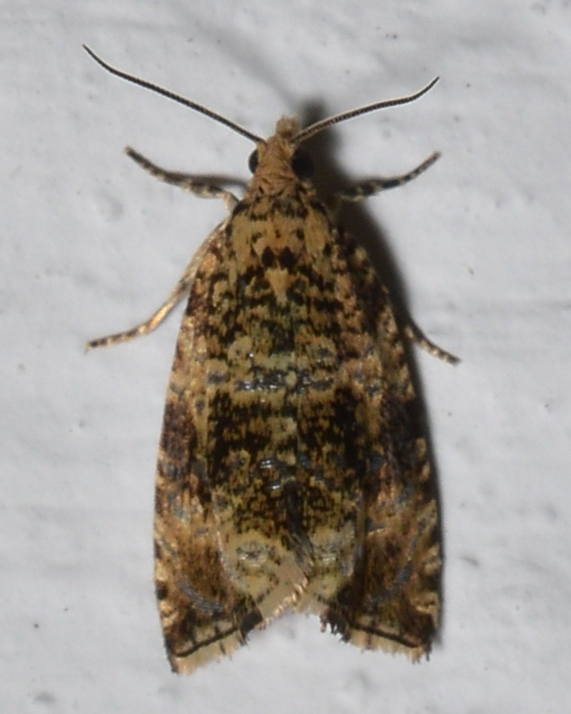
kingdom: Animalia
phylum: Arthropoda
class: Insecta
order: Lepidoptera
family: Tortricidae
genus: Syricoris
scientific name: Syricoris lacunana
